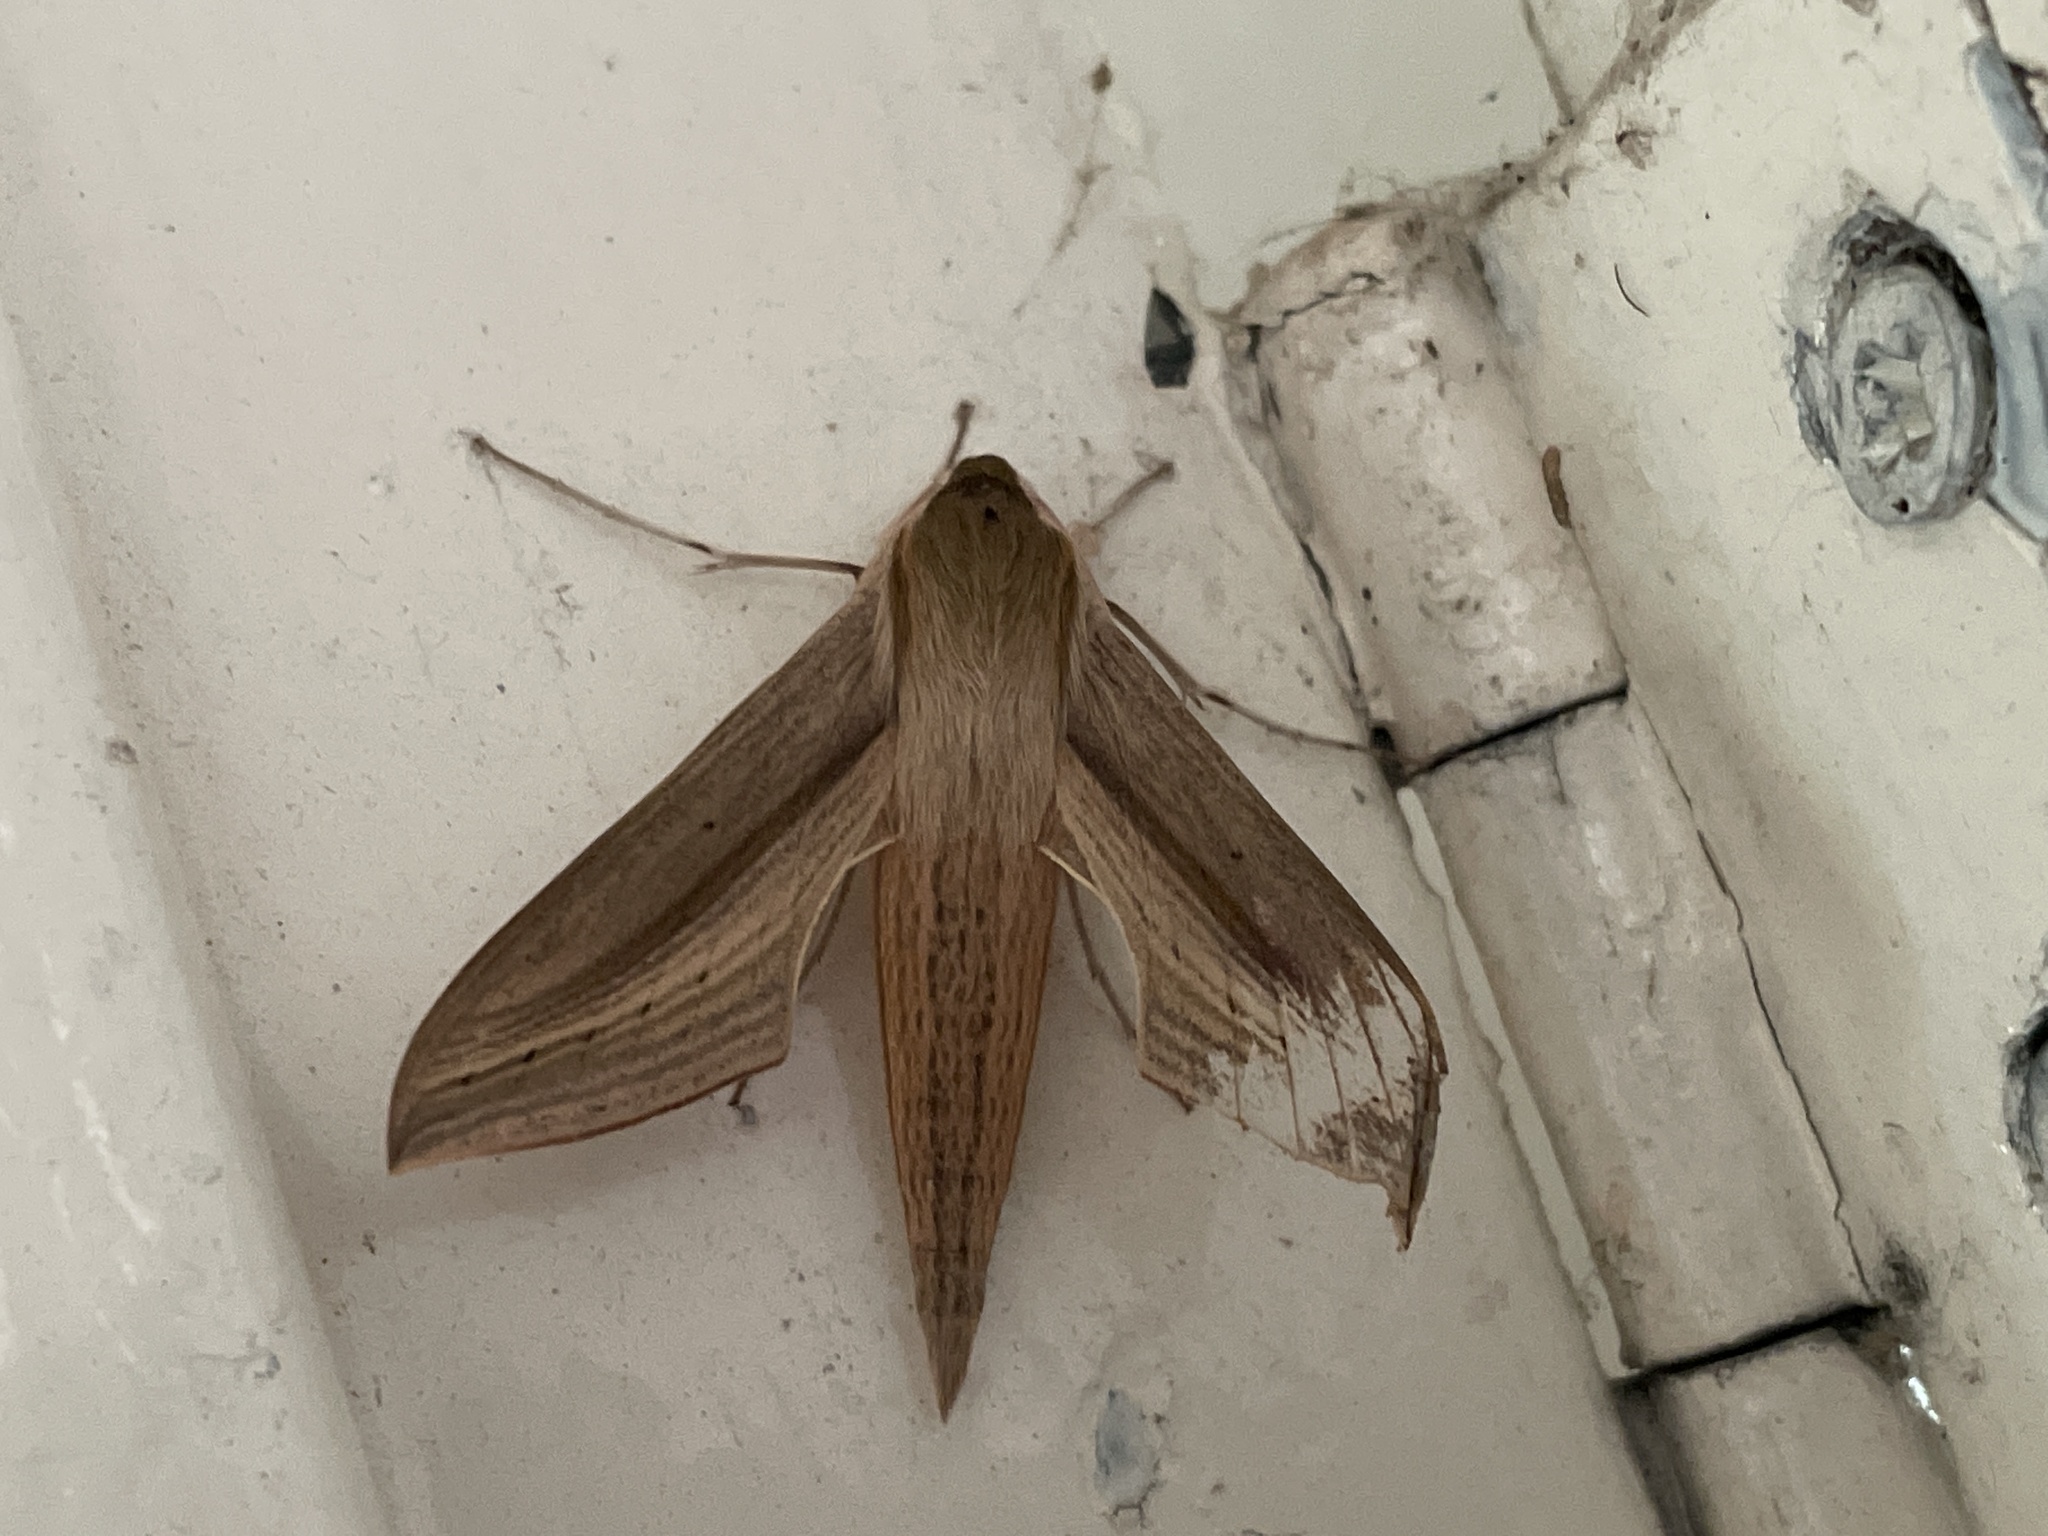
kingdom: Animalia
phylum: Arthropoda
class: Insecta
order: Lepidoptera
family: Sphingidae
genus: Hippotion
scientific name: Hippotion balsaminae
